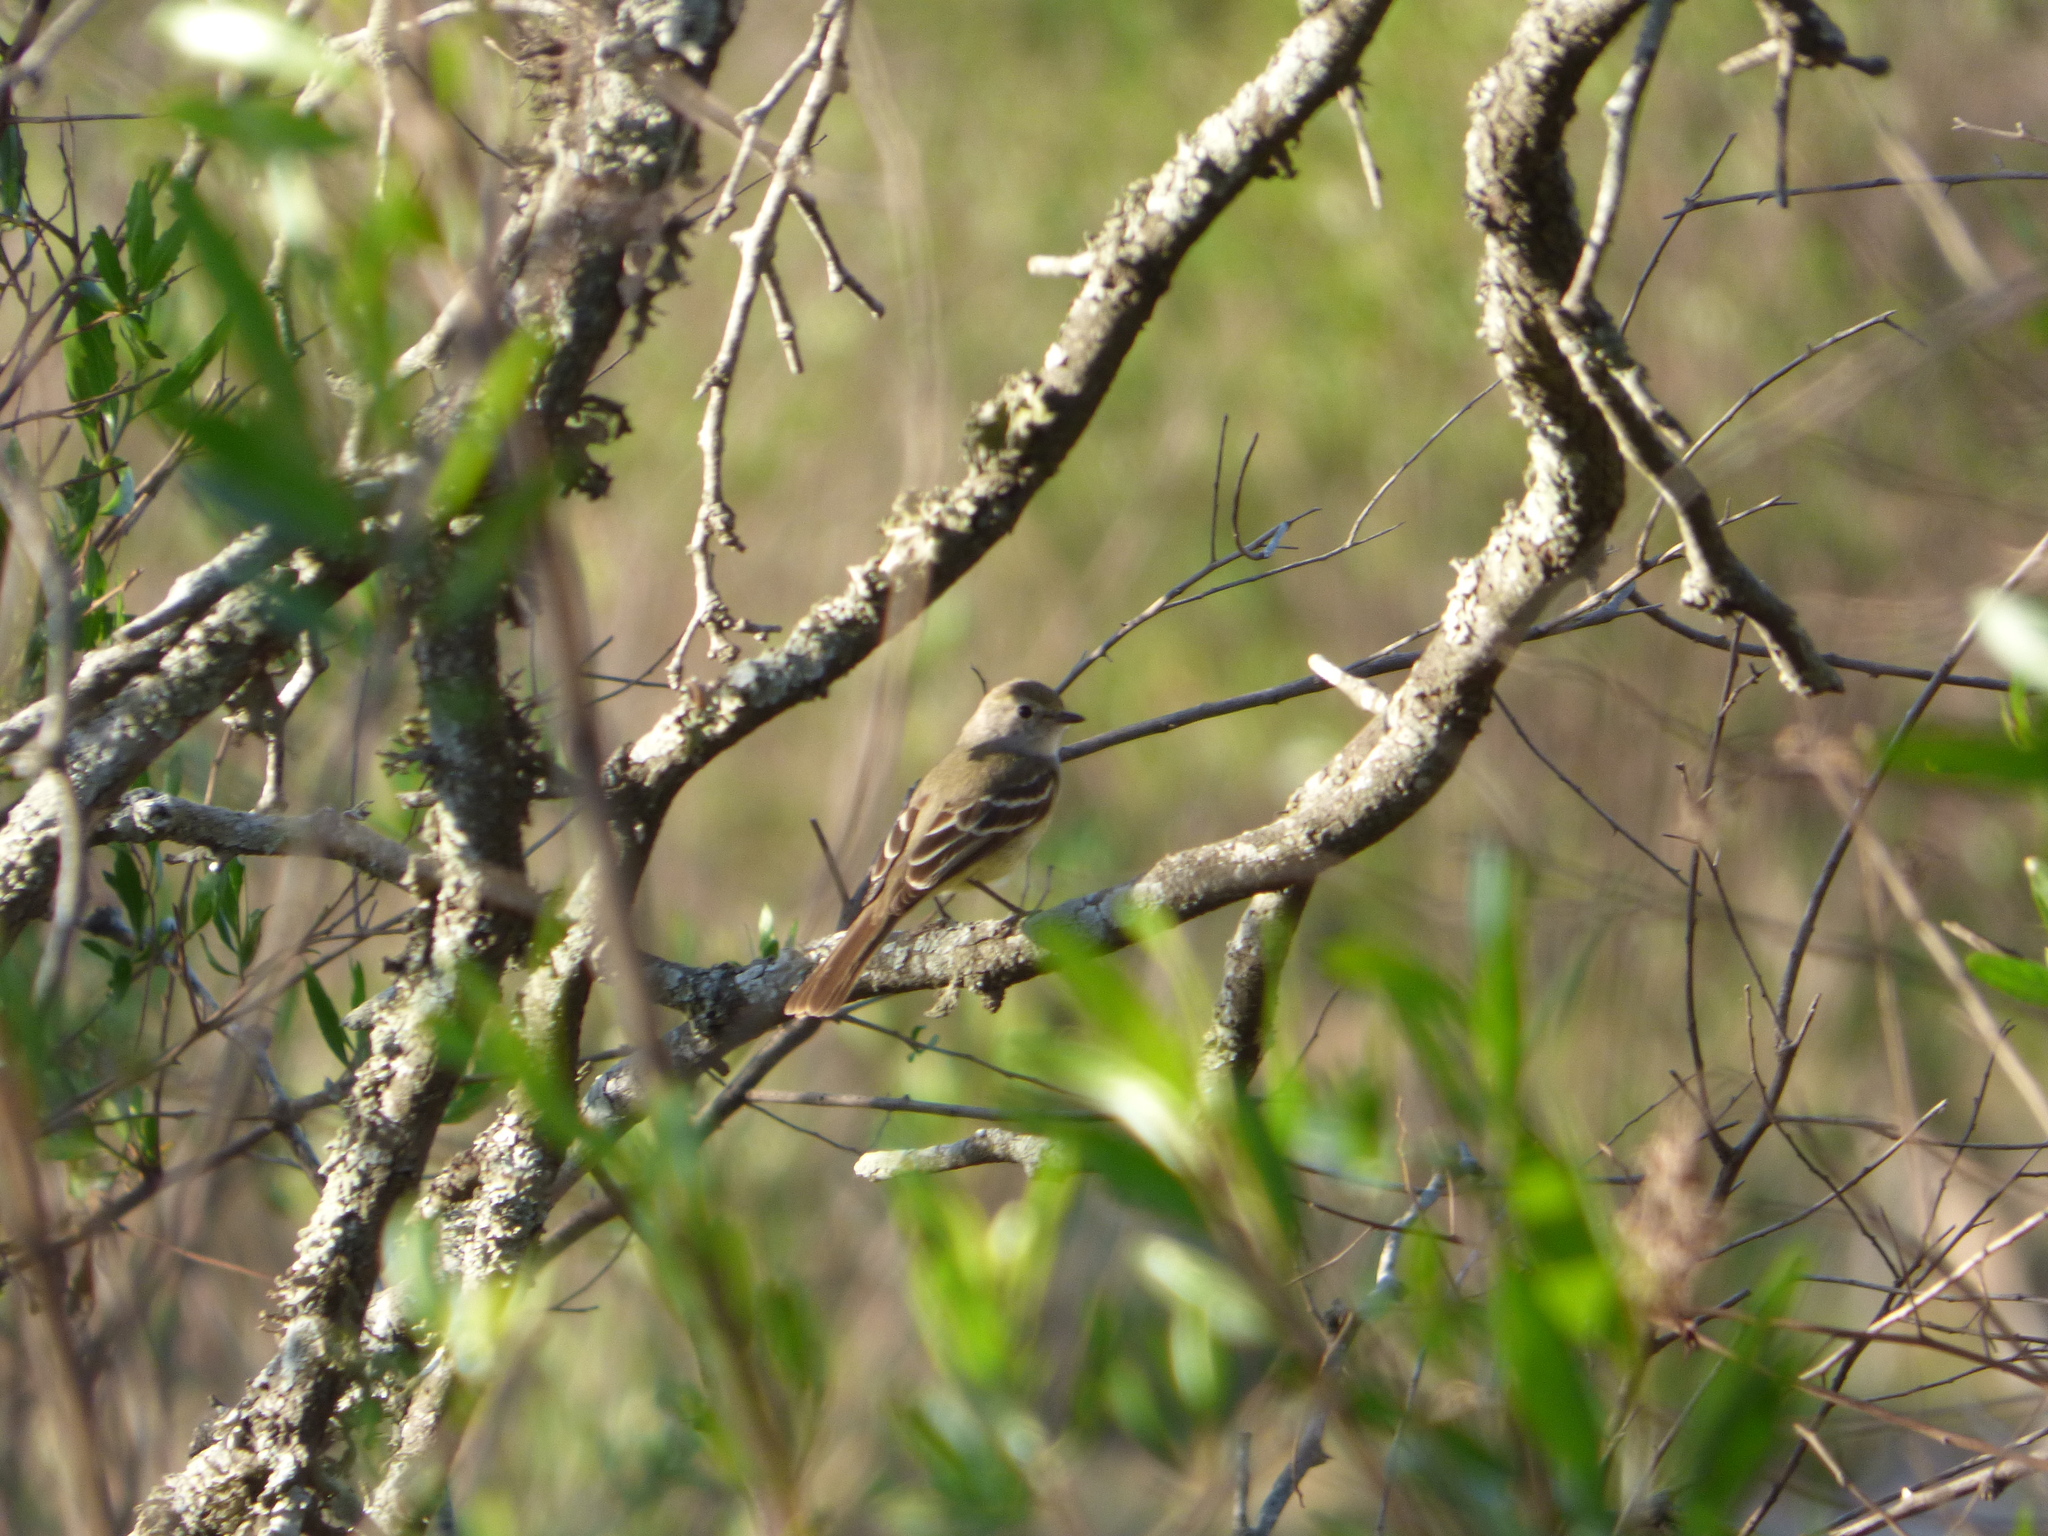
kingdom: Animalia
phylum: Chordata
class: Aves
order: Passeriformes
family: Tyrannidae
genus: Sublegatus
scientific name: Sublegatus modestus
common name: Southern scrub flycatcher
